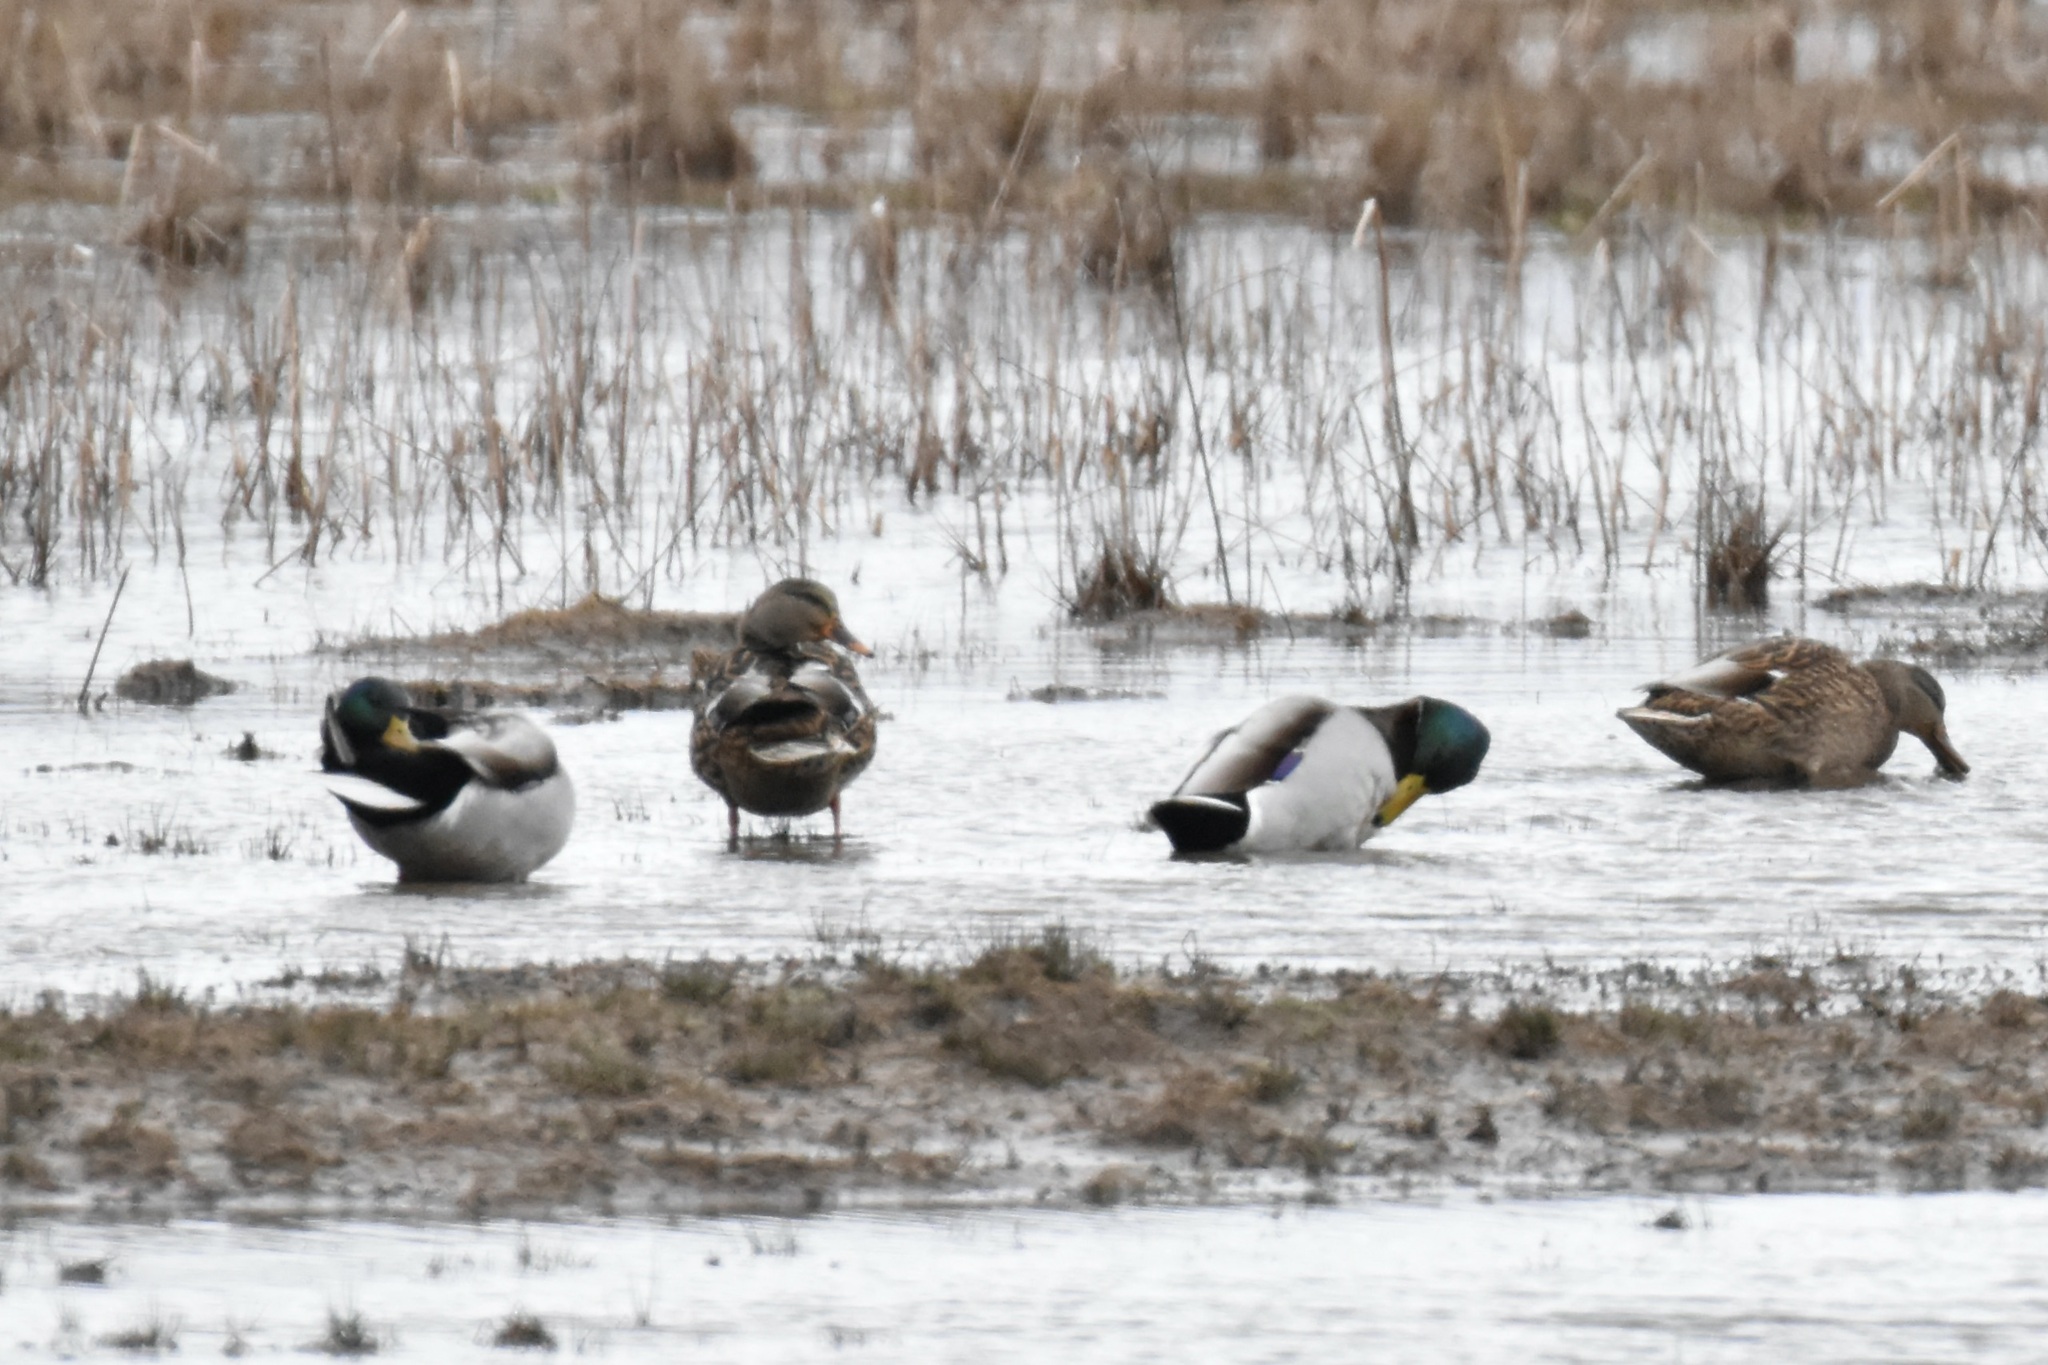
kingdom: Animalia
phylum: Chordata
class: Aves
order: Anseriformes
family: Anatidae
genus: Anas
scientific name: Anas platyrhynchos
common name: Mallard
